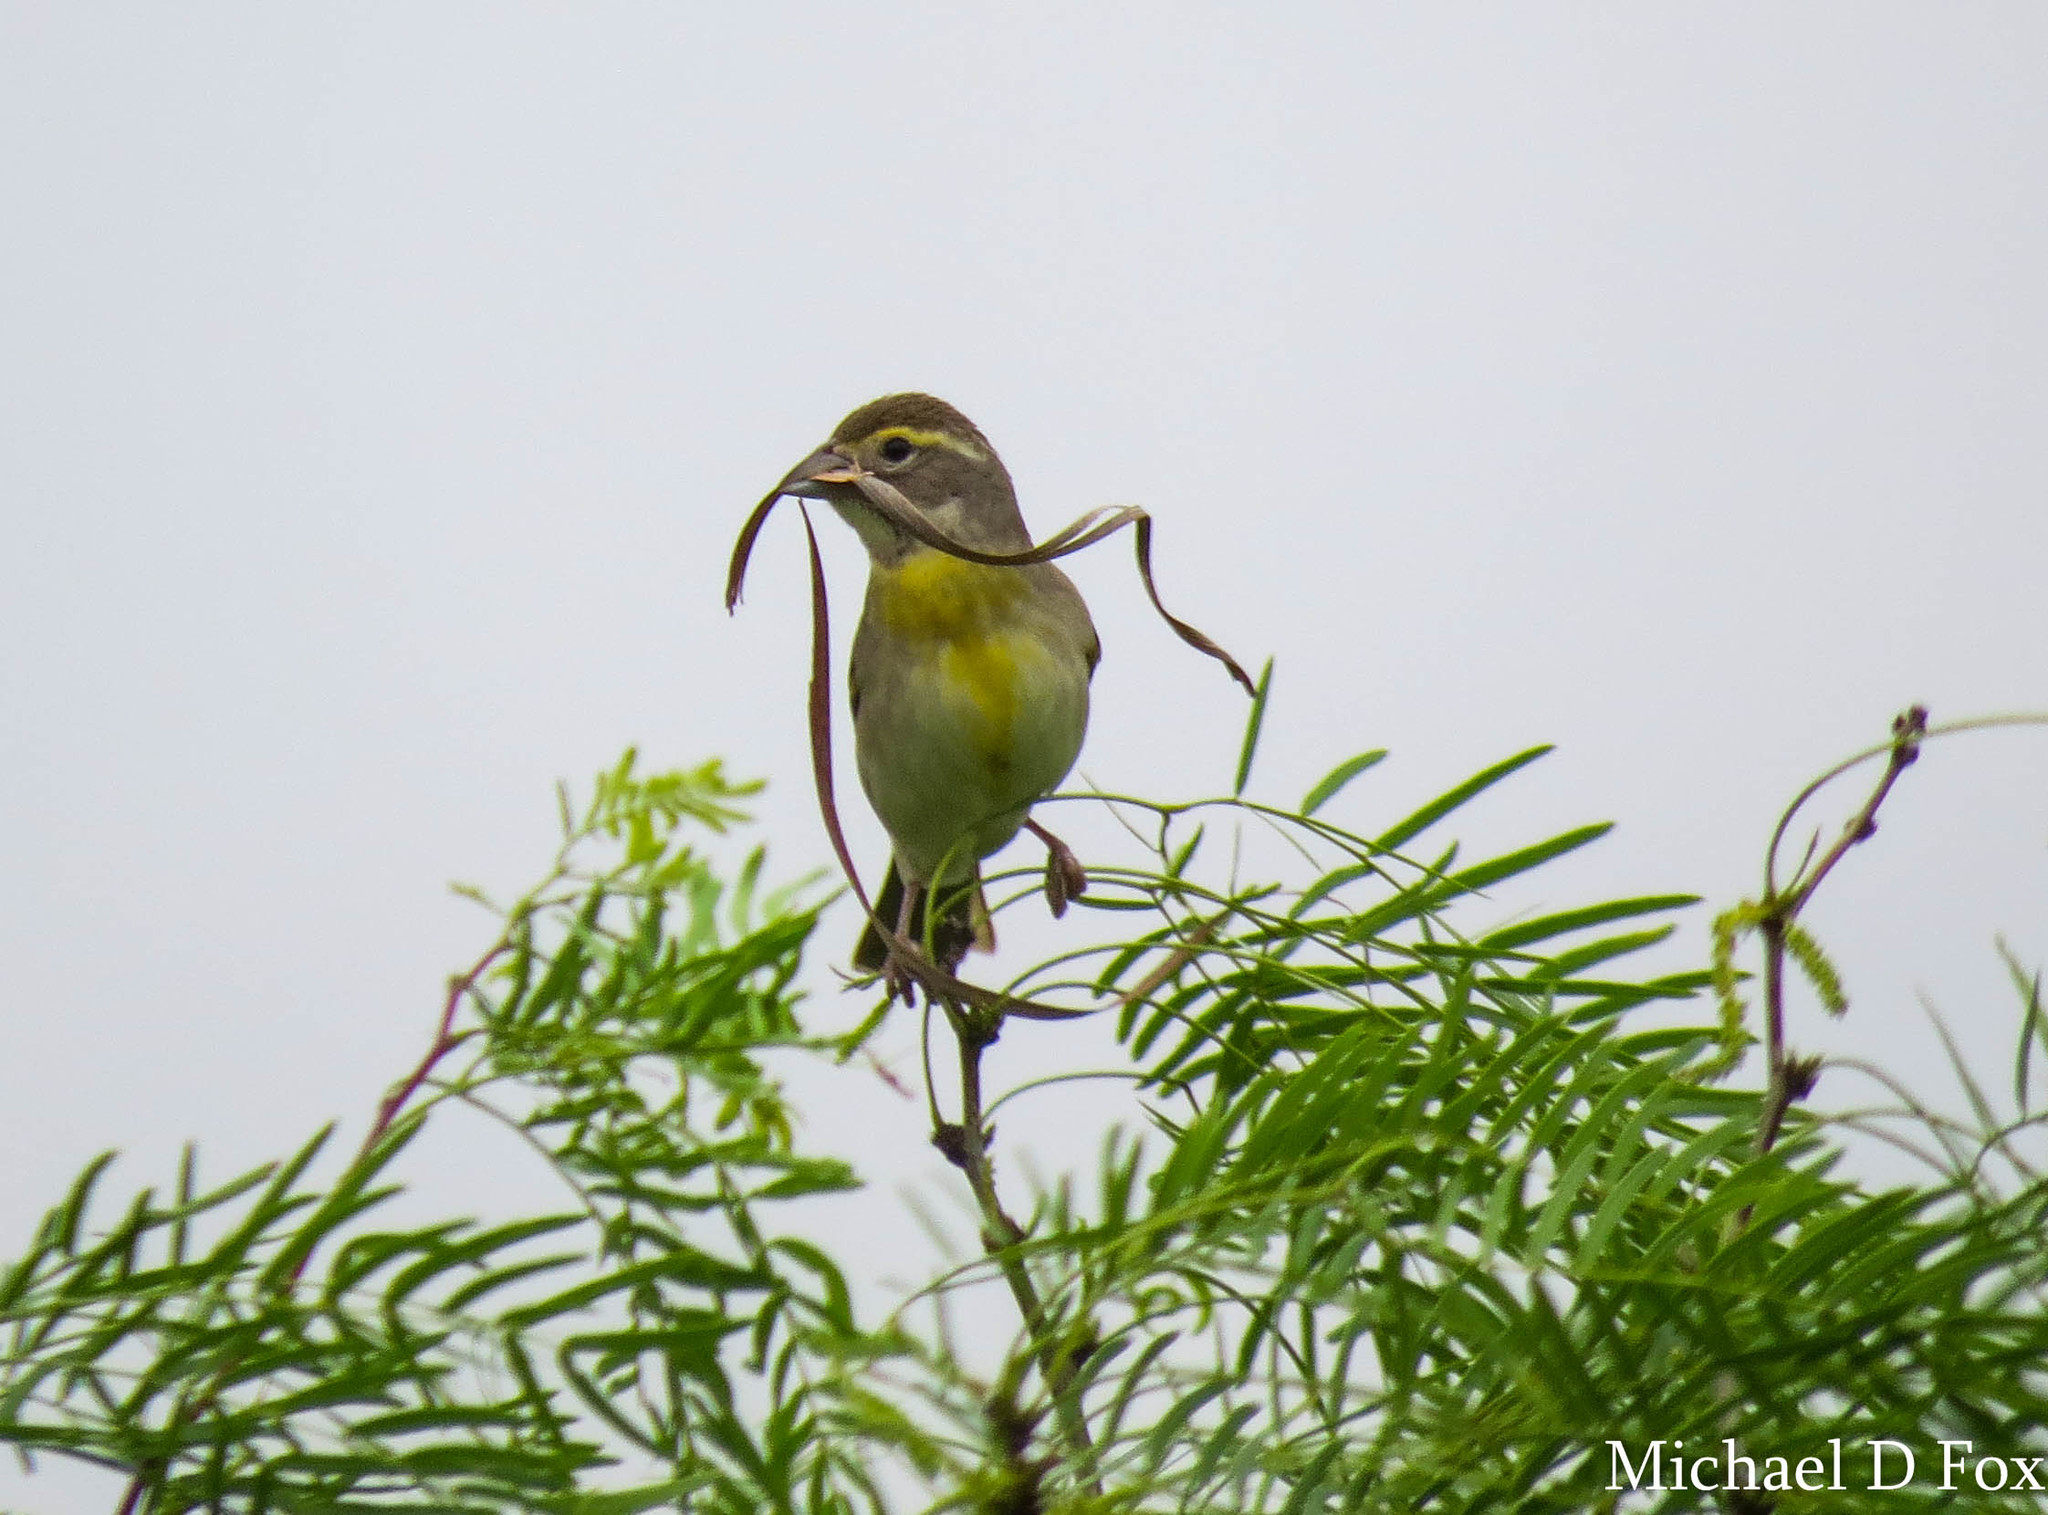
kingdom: Animalia
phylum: Chordata
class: Aves
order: Passeriformes
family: Cardinalidae
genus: Spiza
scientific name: Spiza americana
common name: Dickcissel
